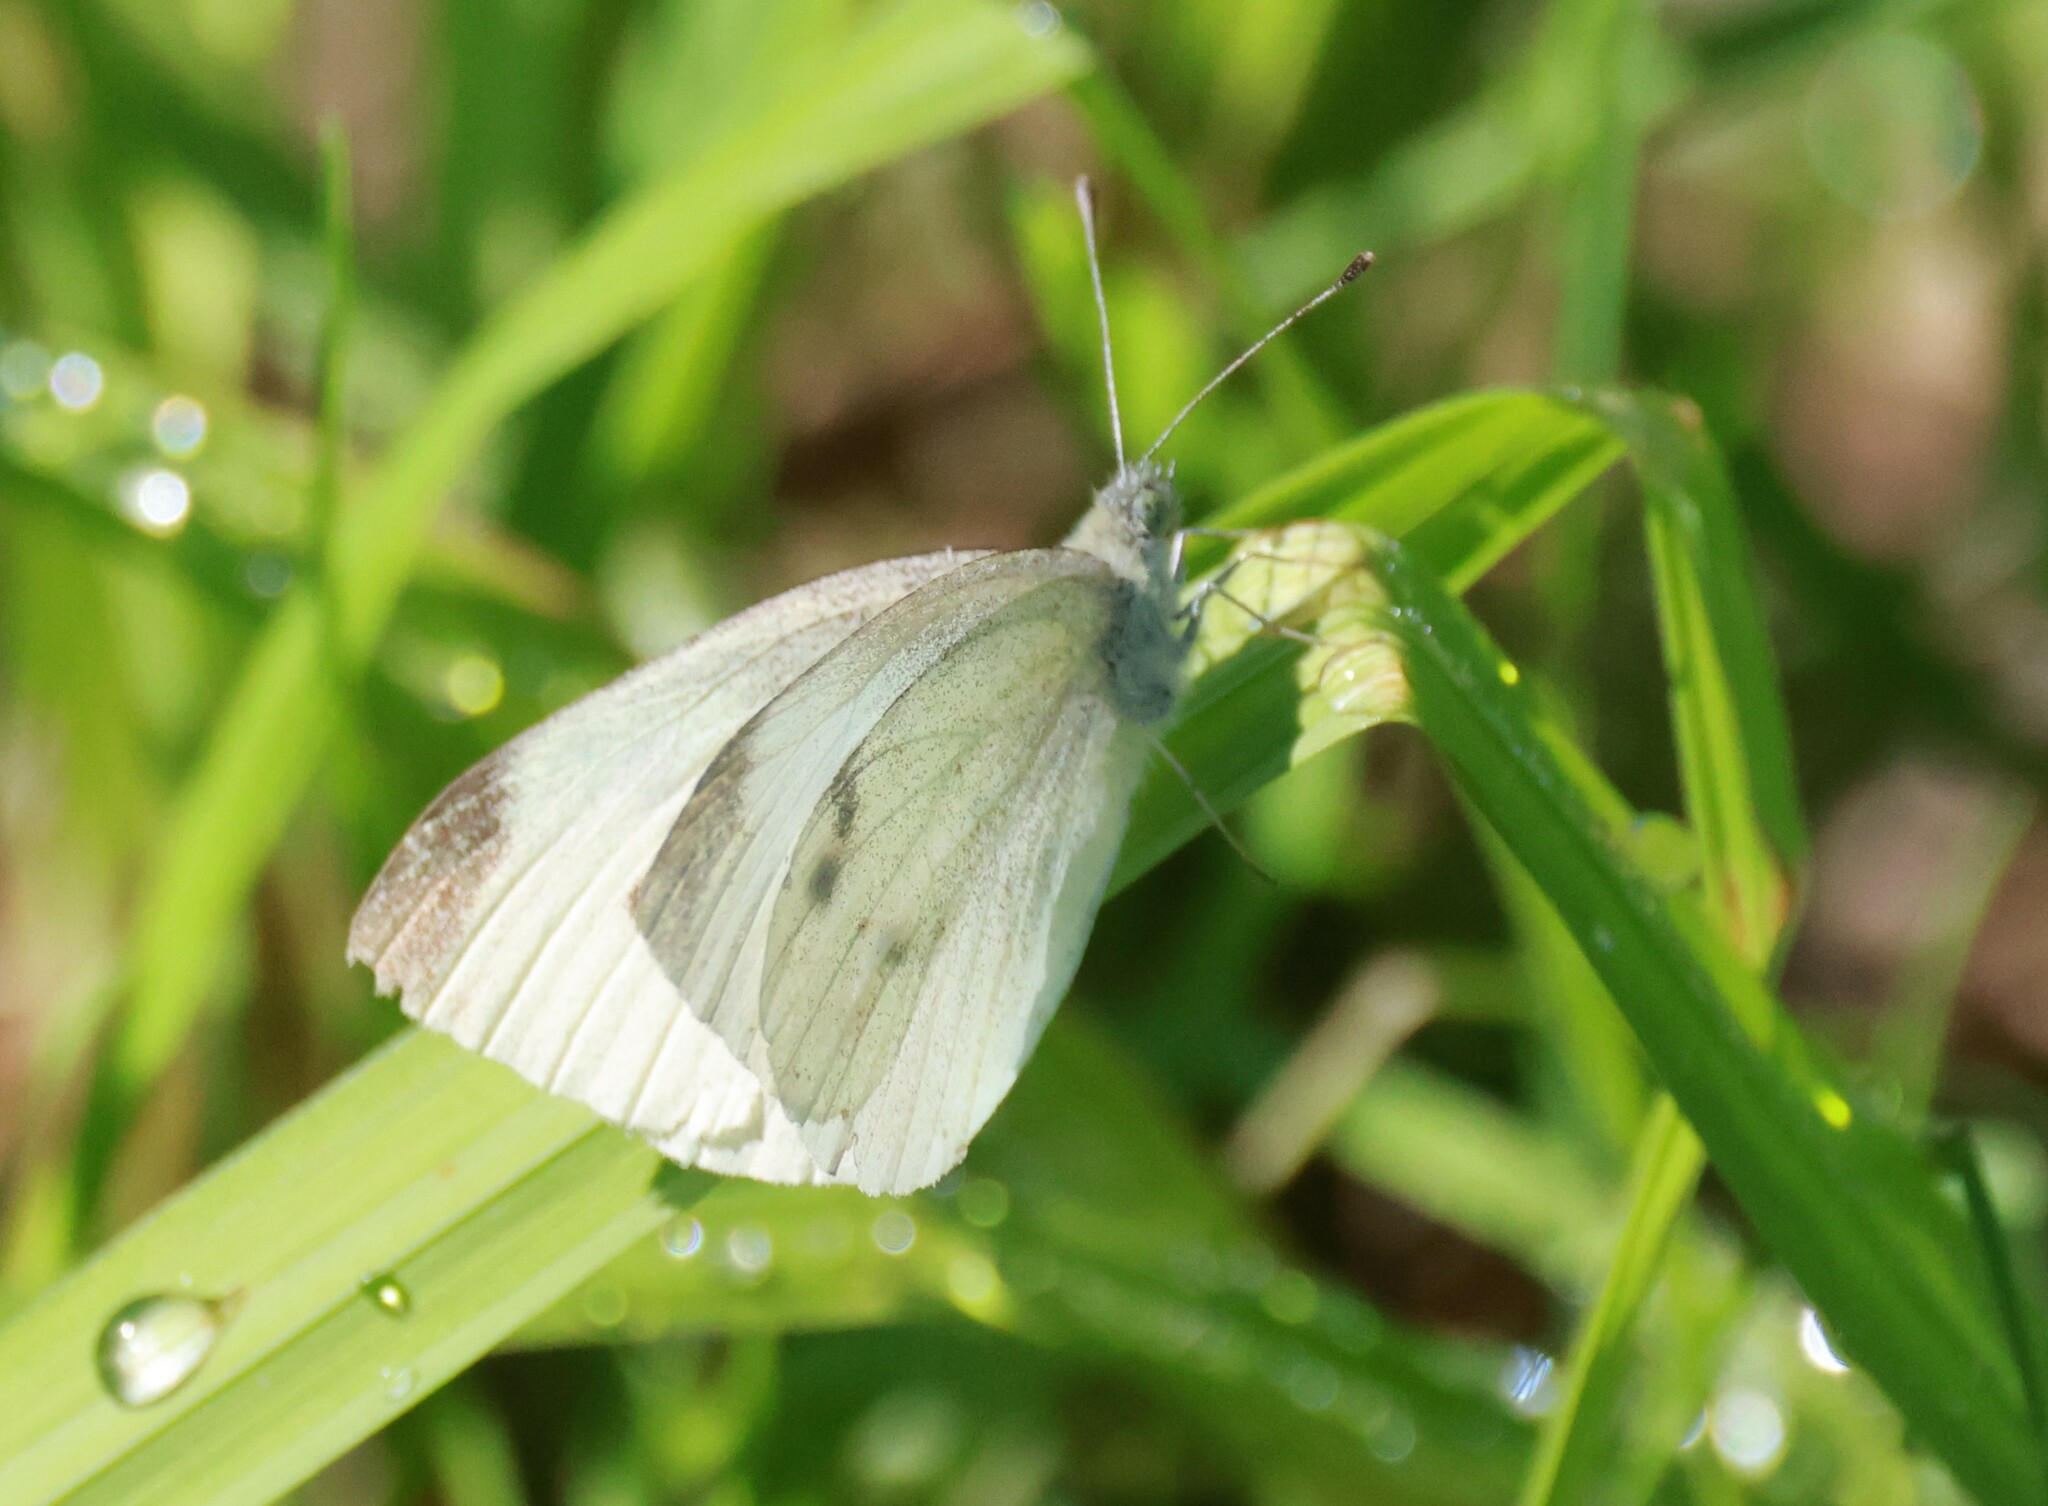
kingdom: Animalia
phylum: Arthropoda
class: Insecta
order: Lepidoptera
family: Pieridae
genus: Pieris
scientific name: Pieris rapae
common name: Small white
